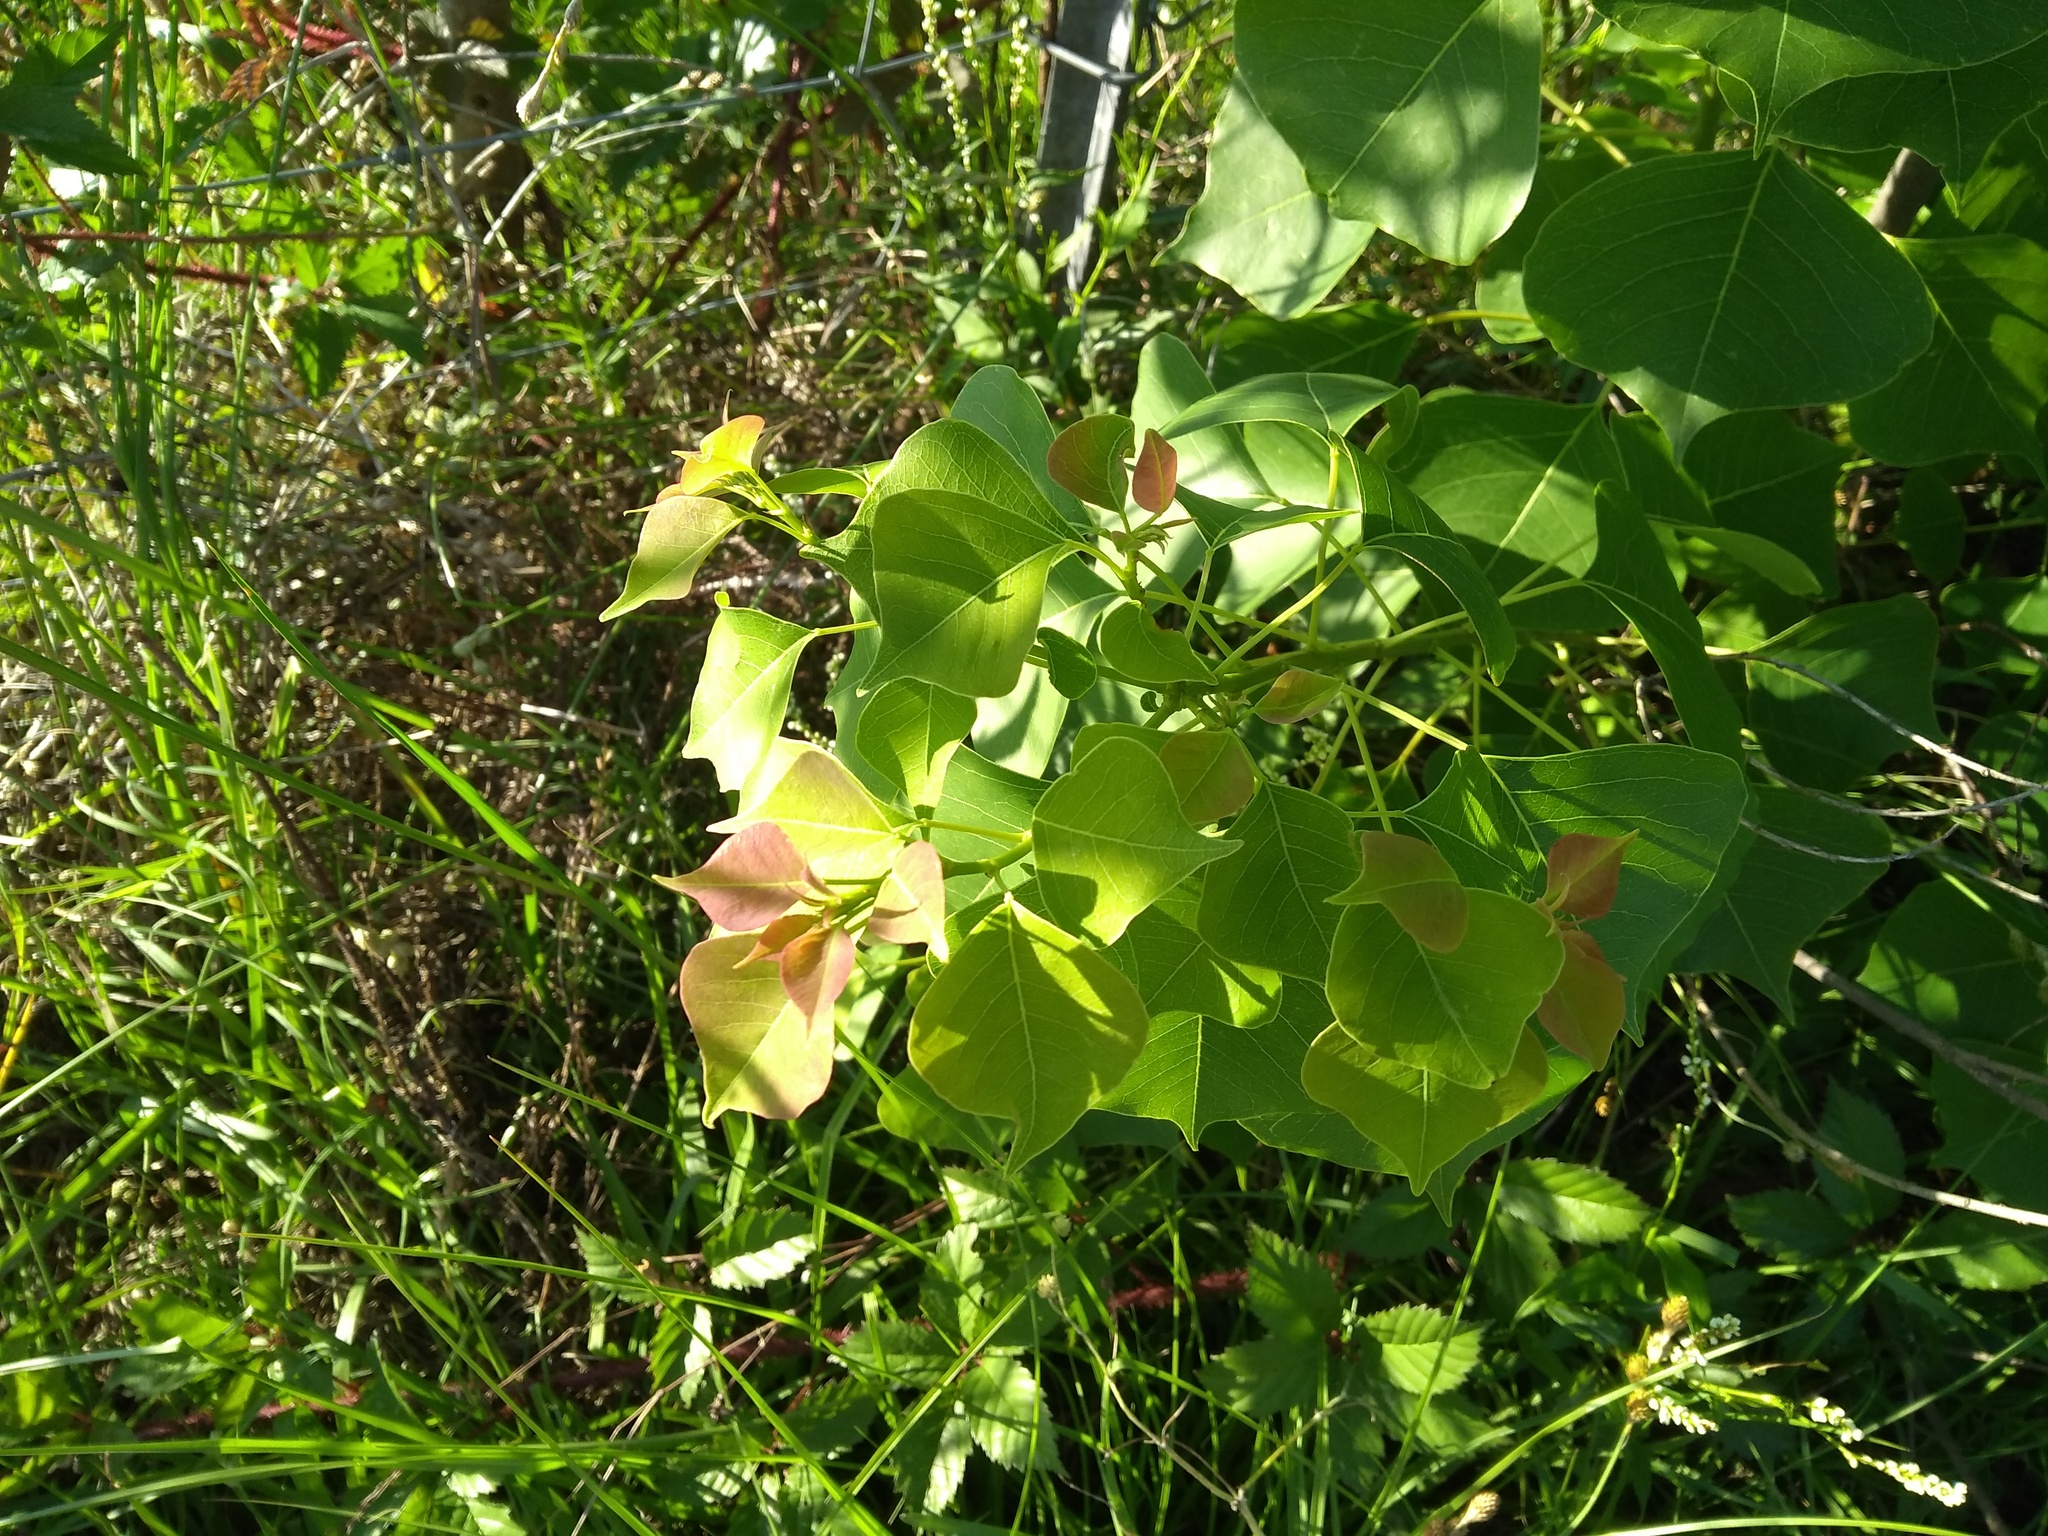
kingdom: Plantae
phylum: Tracheophyta
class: Magnoliopsida
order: Malpighiales
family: Euphorbiaceae
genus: Triadica
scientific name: Triadica sebifera
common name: Chinese tallow
